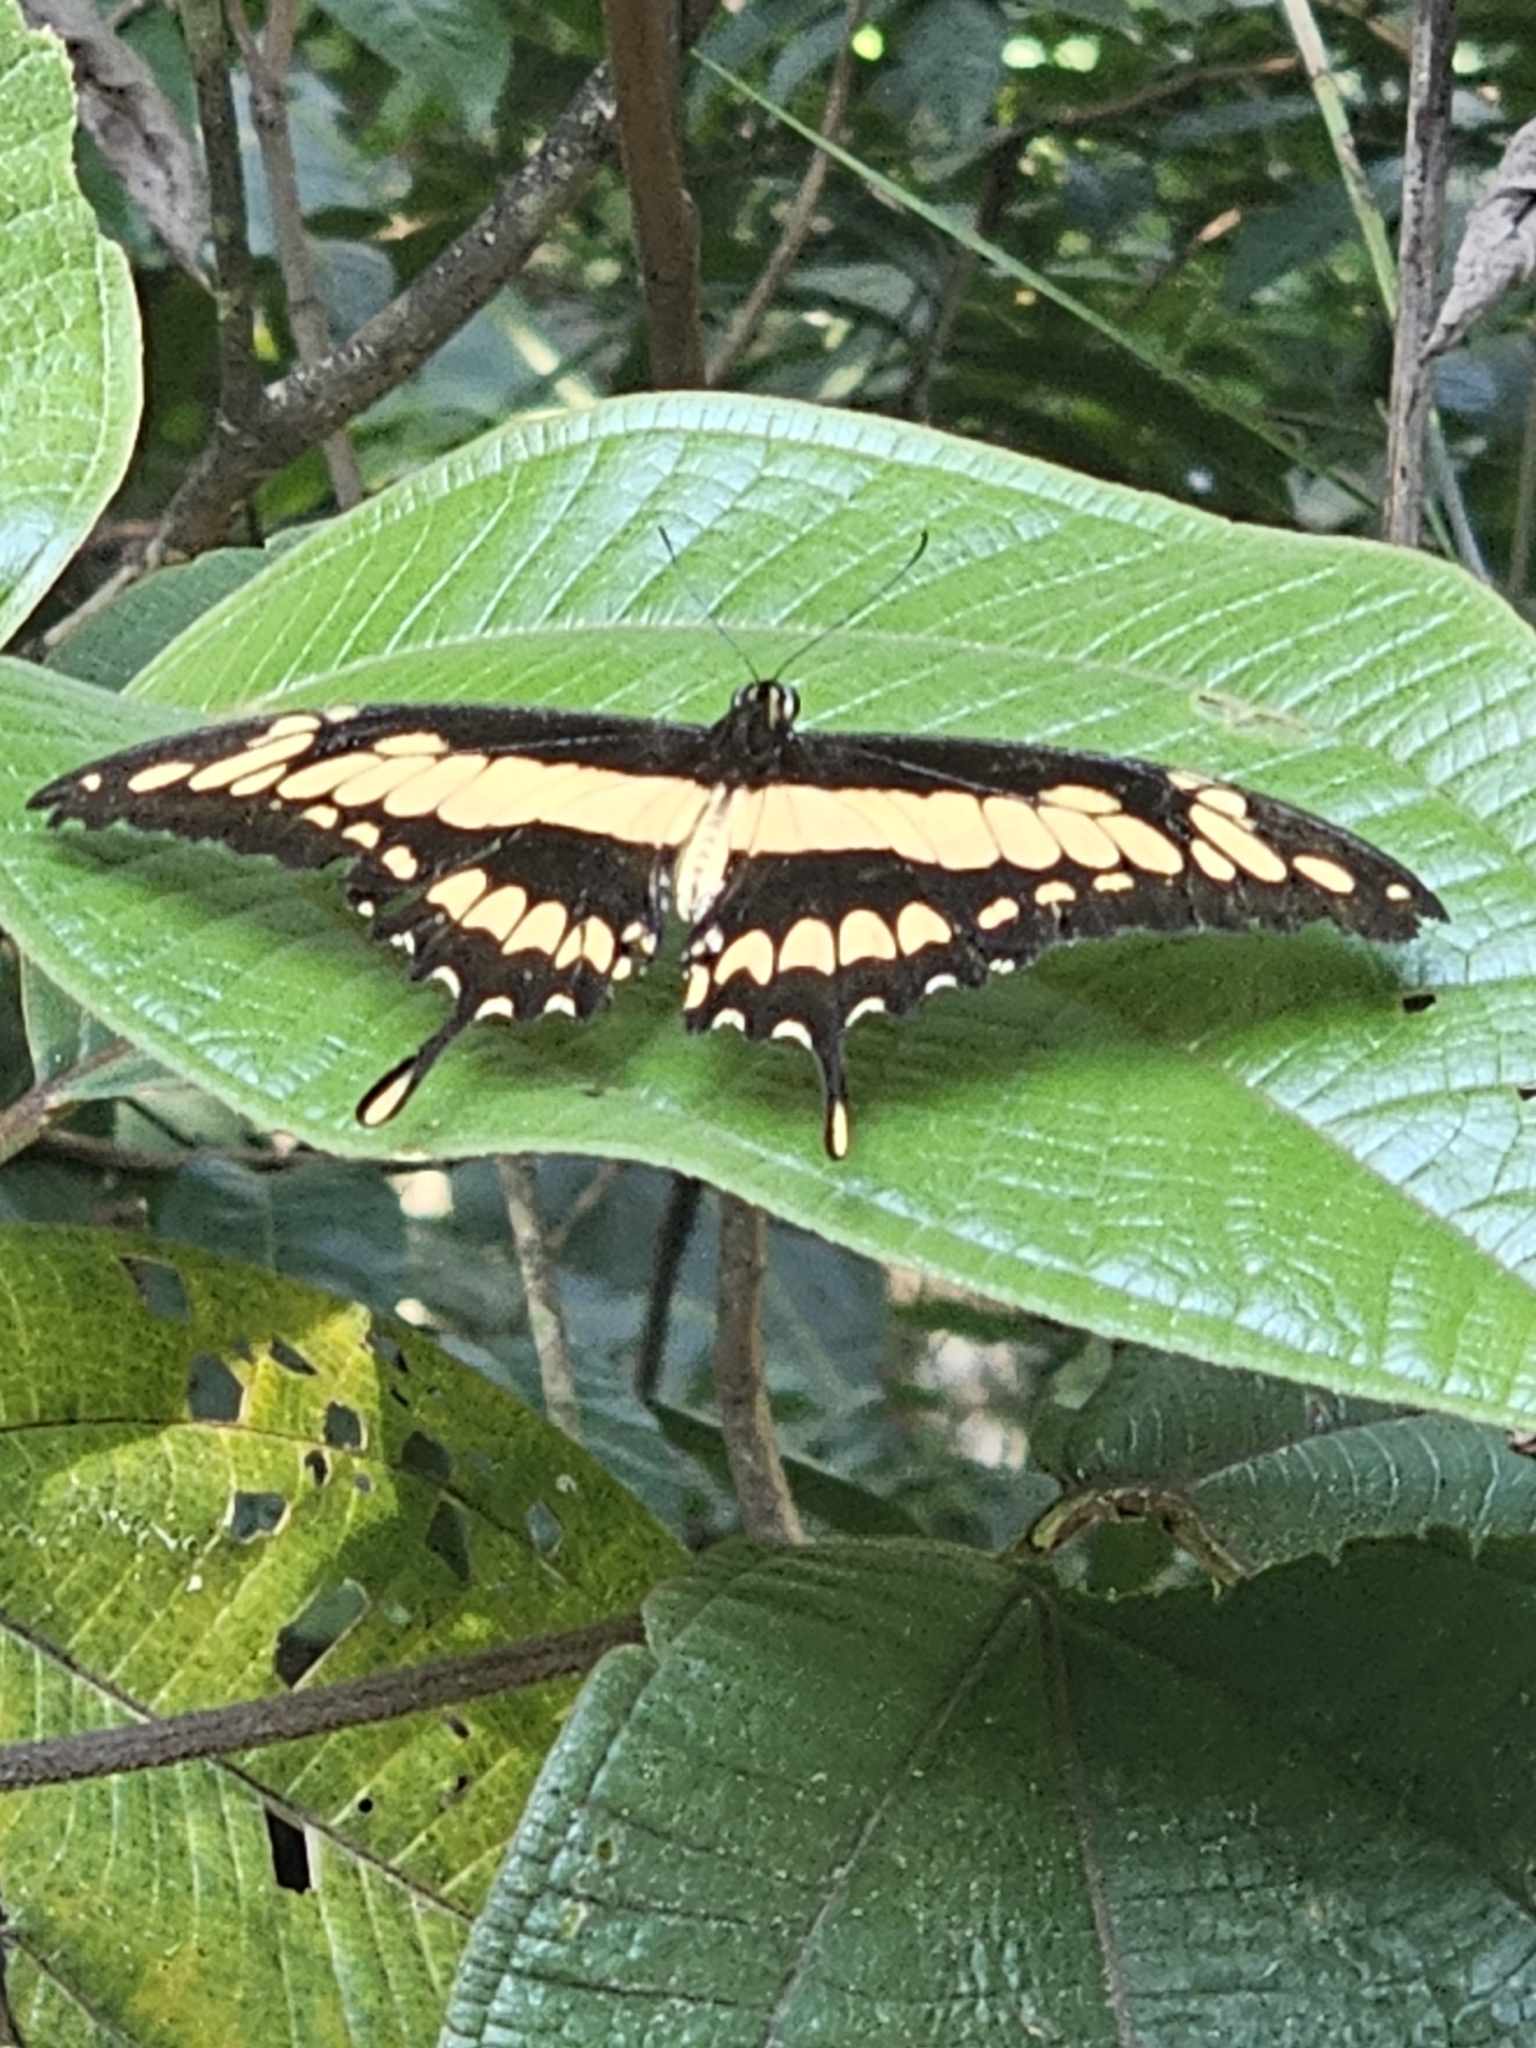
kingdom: Animalia
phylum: Arthropoda
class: Insecta
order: Lepidoptera
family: Papilionidae
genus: Papilio
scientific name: Papilio thoas
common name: King swallowtail
